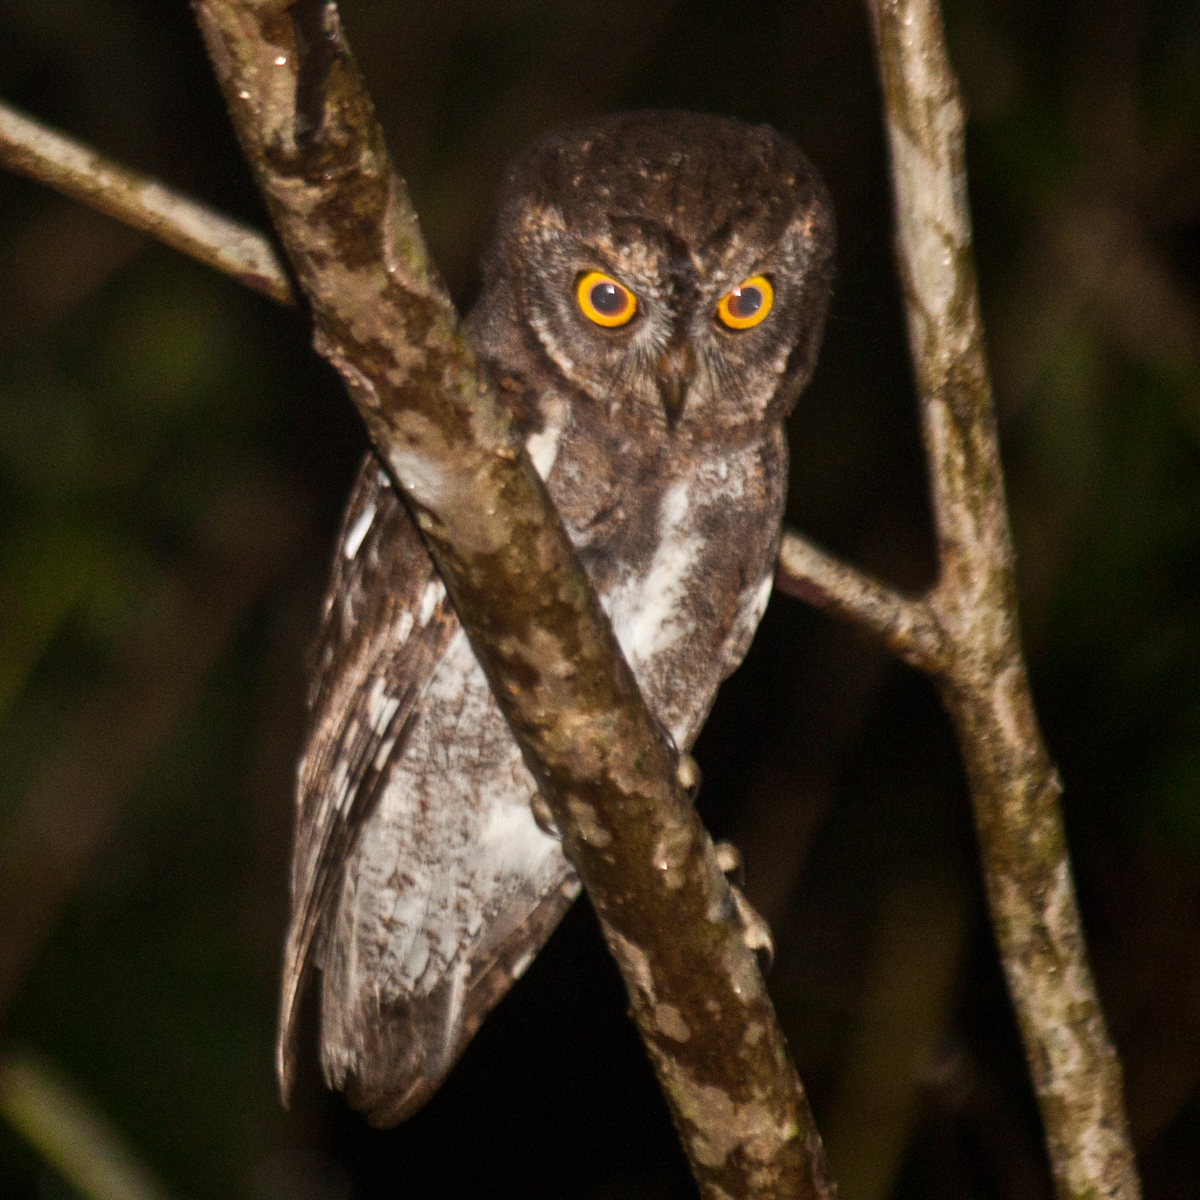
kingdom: Animalia
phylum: Chordata
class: Aves
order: Strigiformes
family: Strigidae
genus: Otus
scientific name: Otus sunia
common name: Oriental scops-owl
